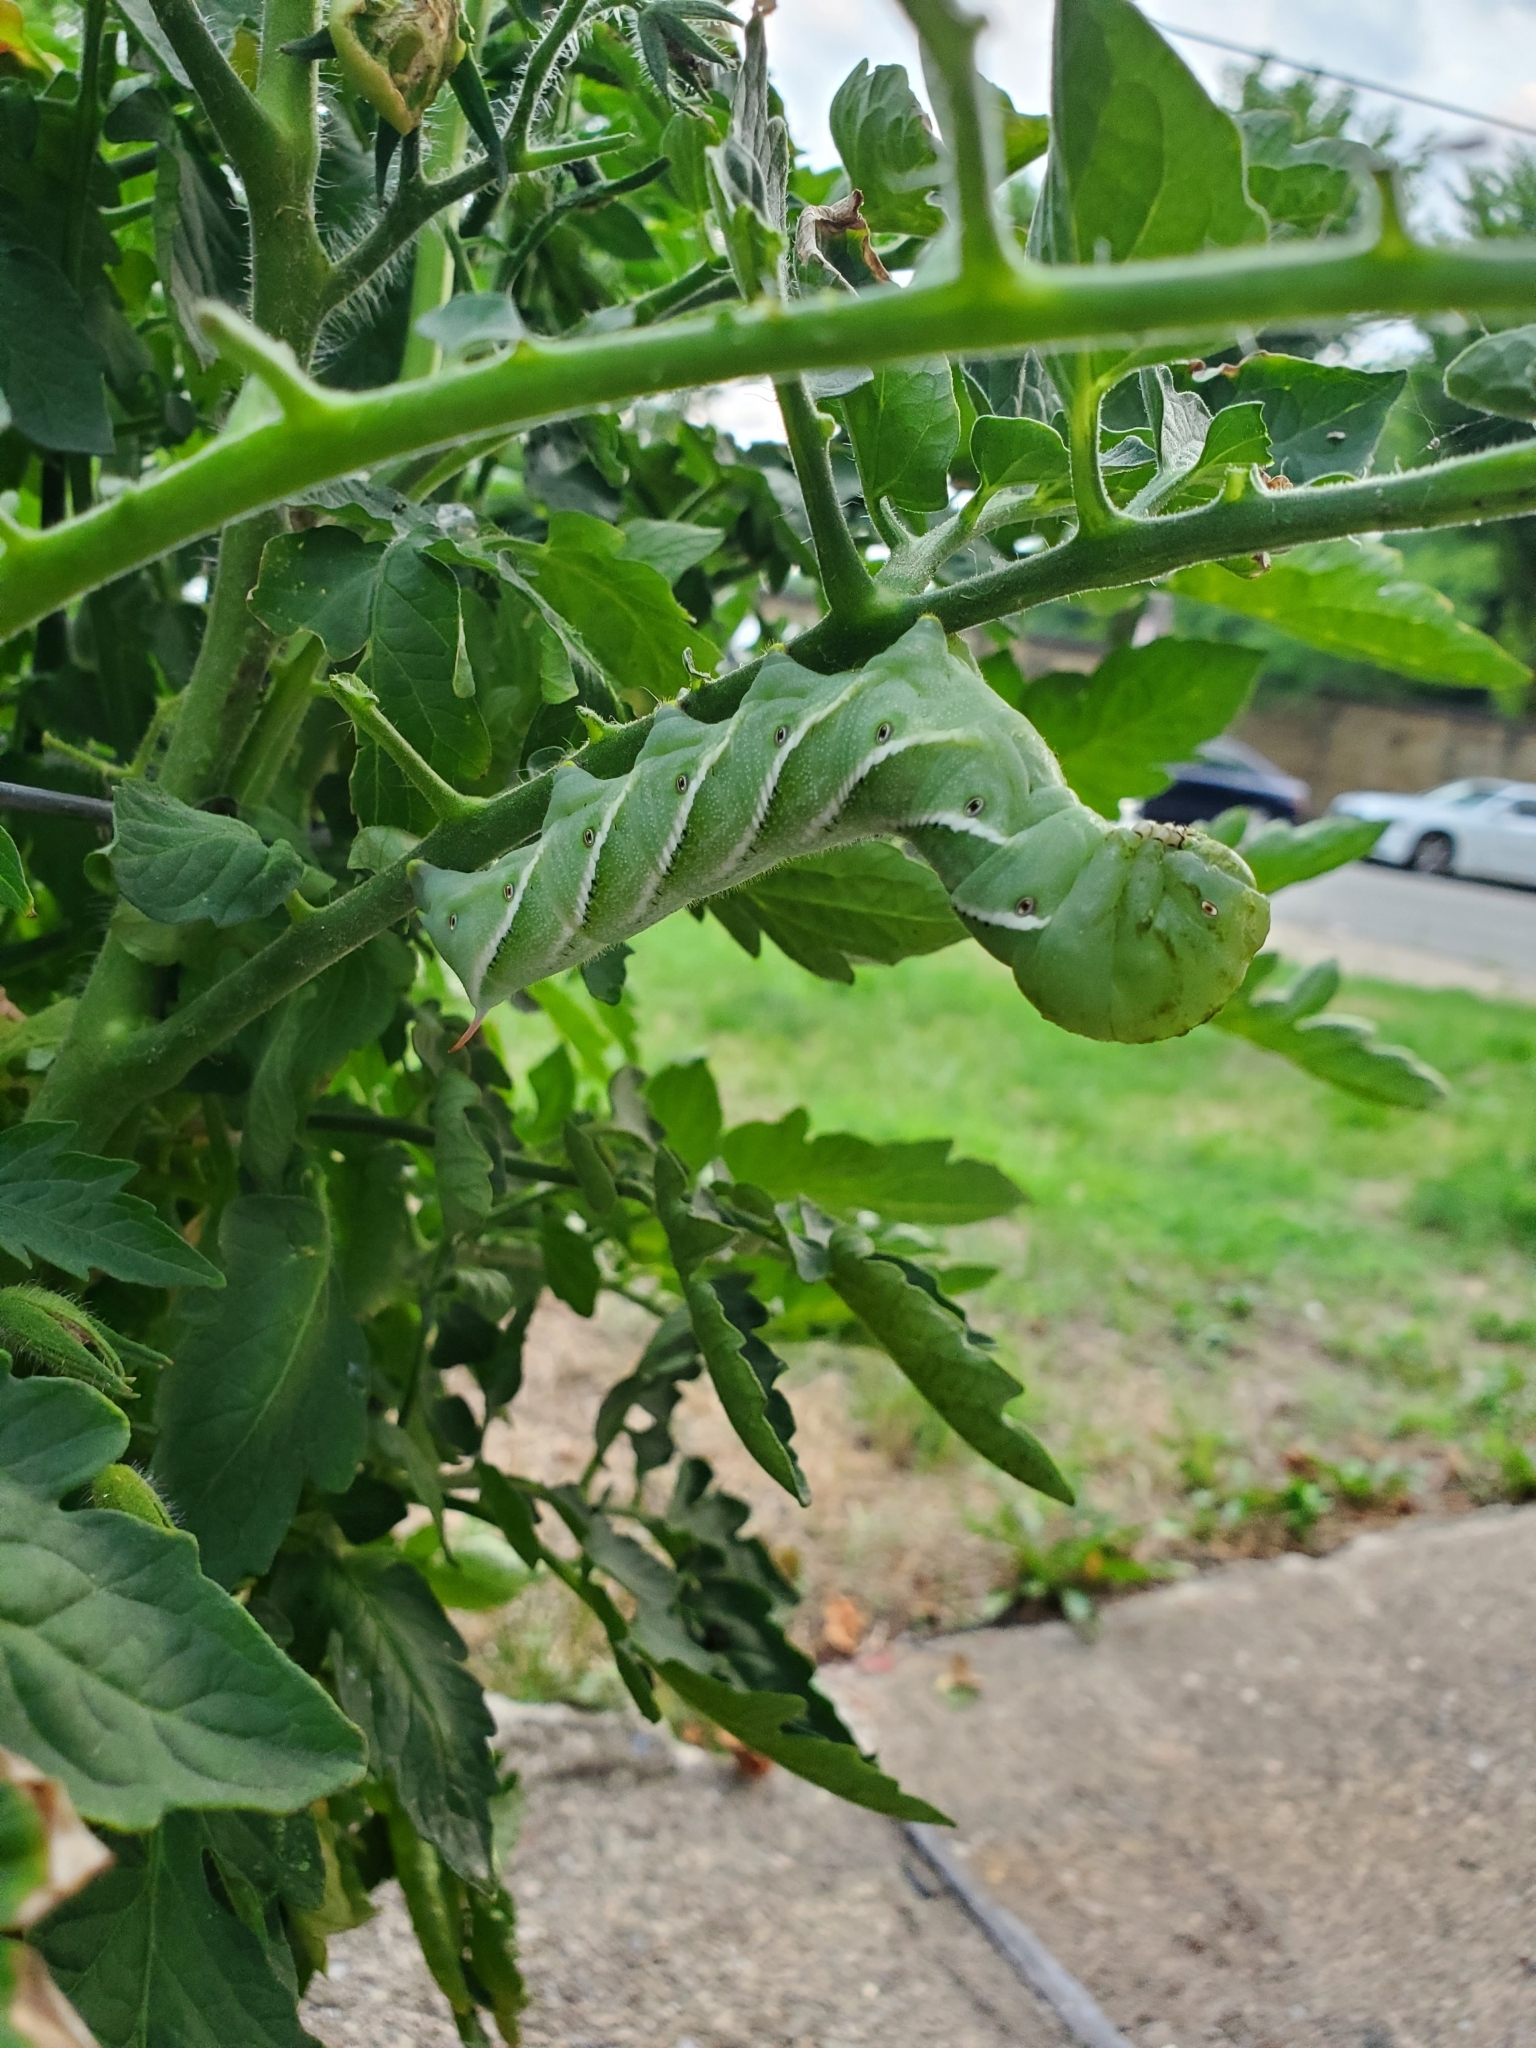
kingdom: Animalia
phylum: Arthropoda
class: Insecta
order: Lepidoptera
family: Sphingidae
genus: Manduca
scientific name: Manduca sexta
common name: Carolina sphinx
